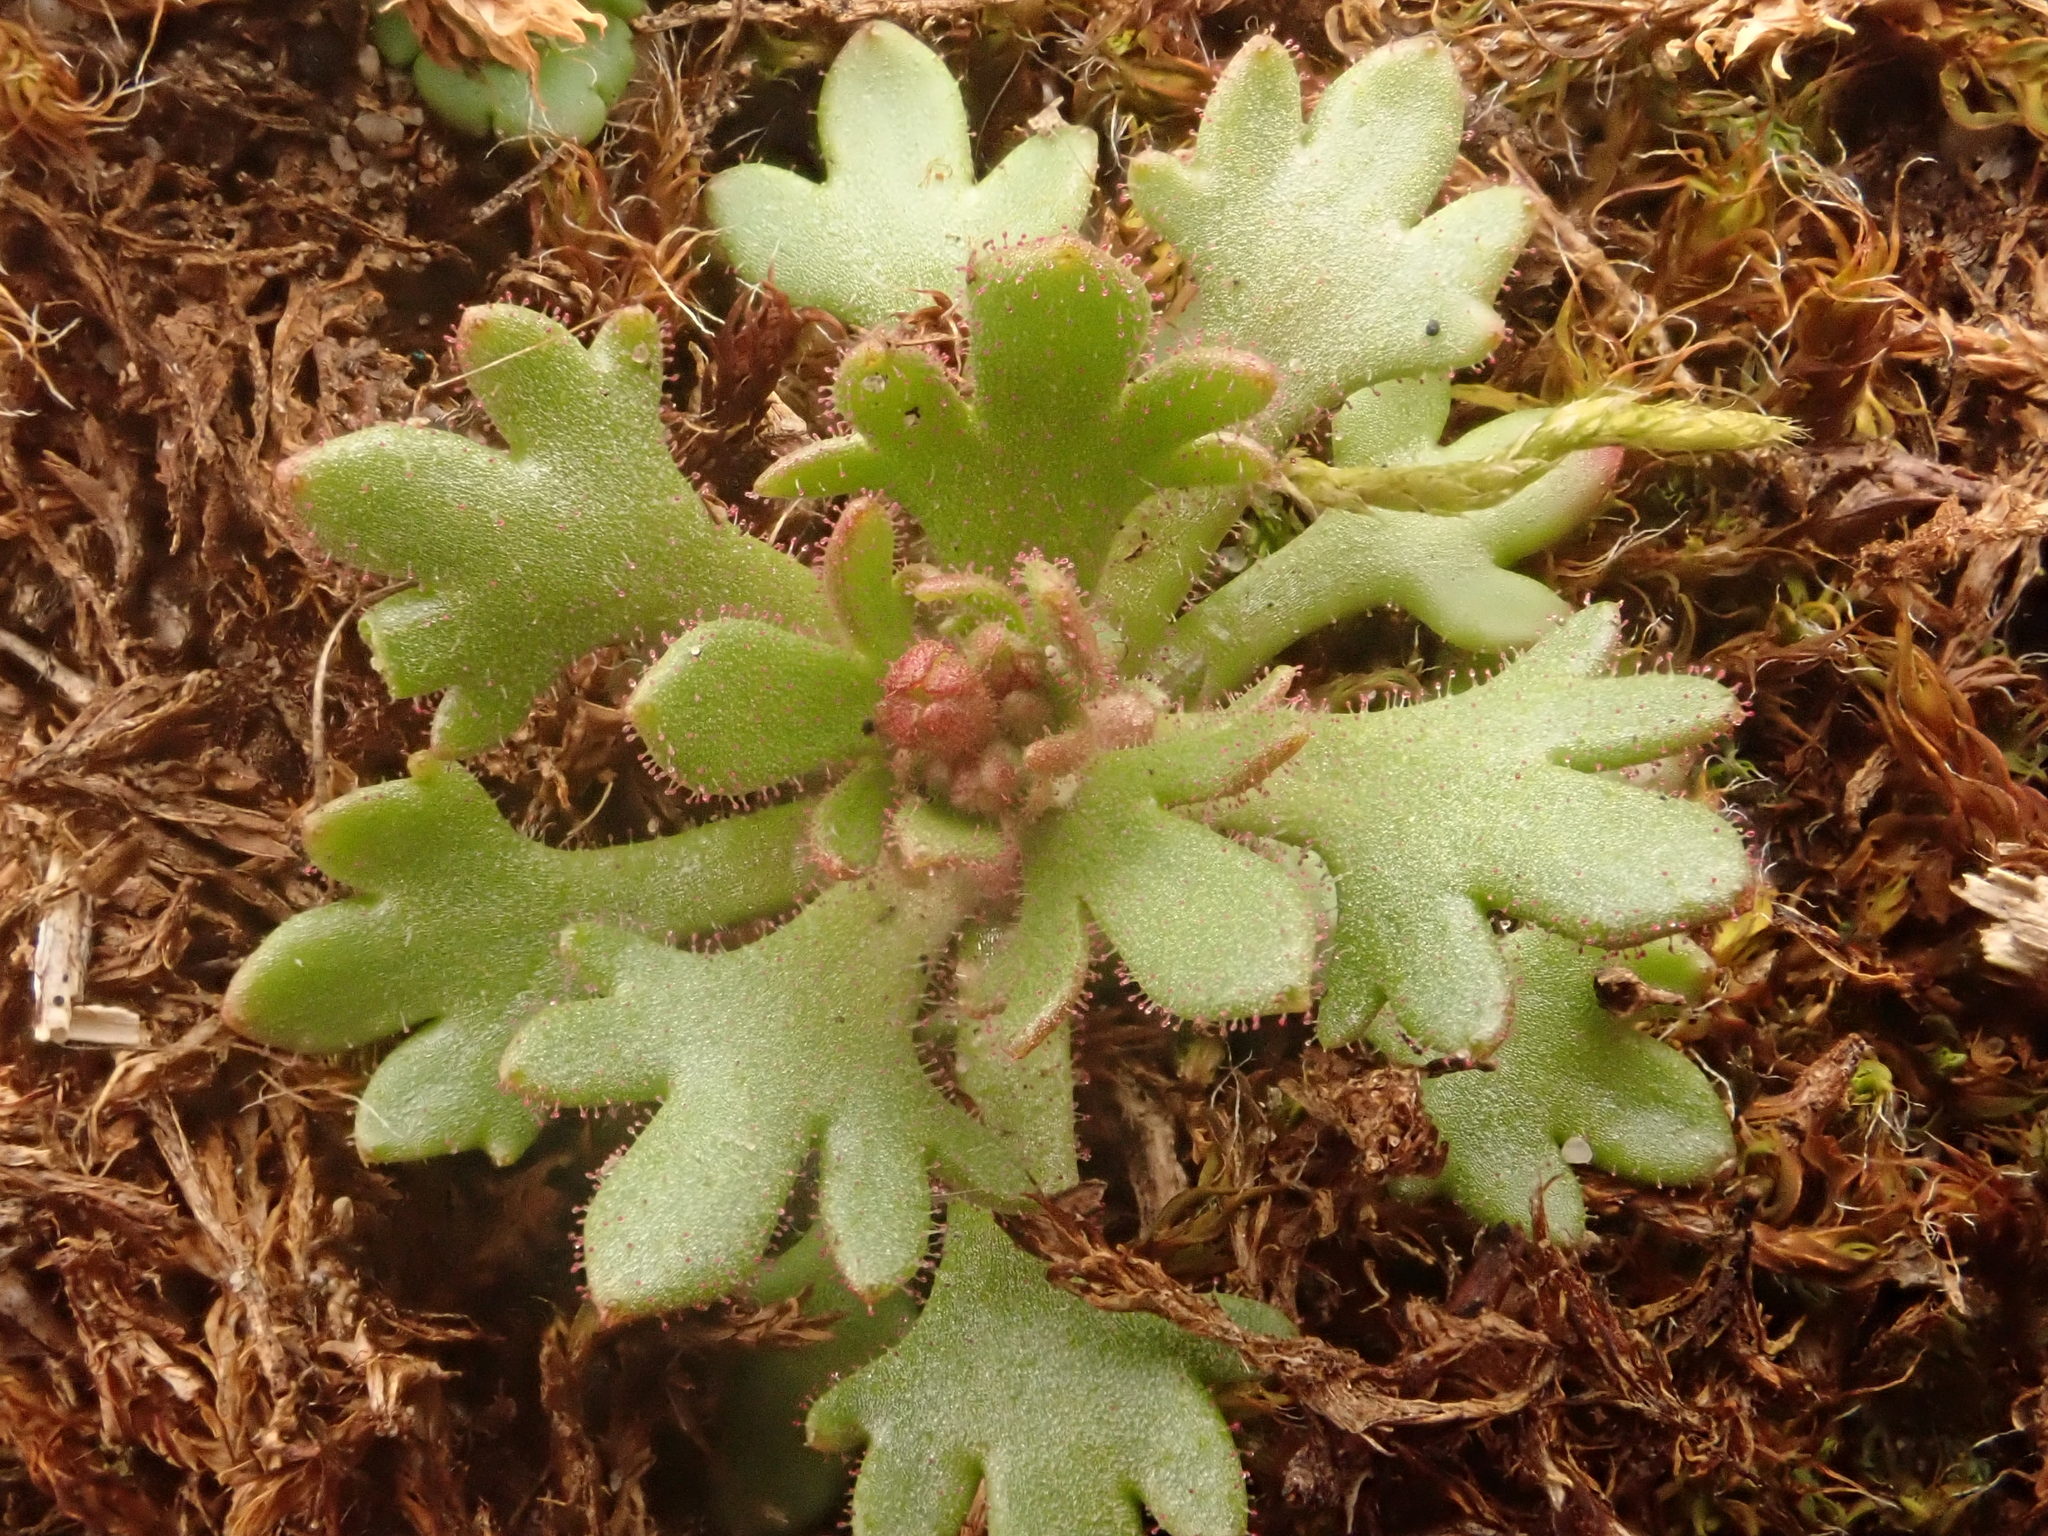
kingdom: Plantae
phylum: Tracheophyta
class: Magnoliopsida
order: Saxifragales
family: Saxifragaceae
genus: Saxifraga
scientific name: Saxifraga tridactylites
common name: Rue-leaved saxifrage
